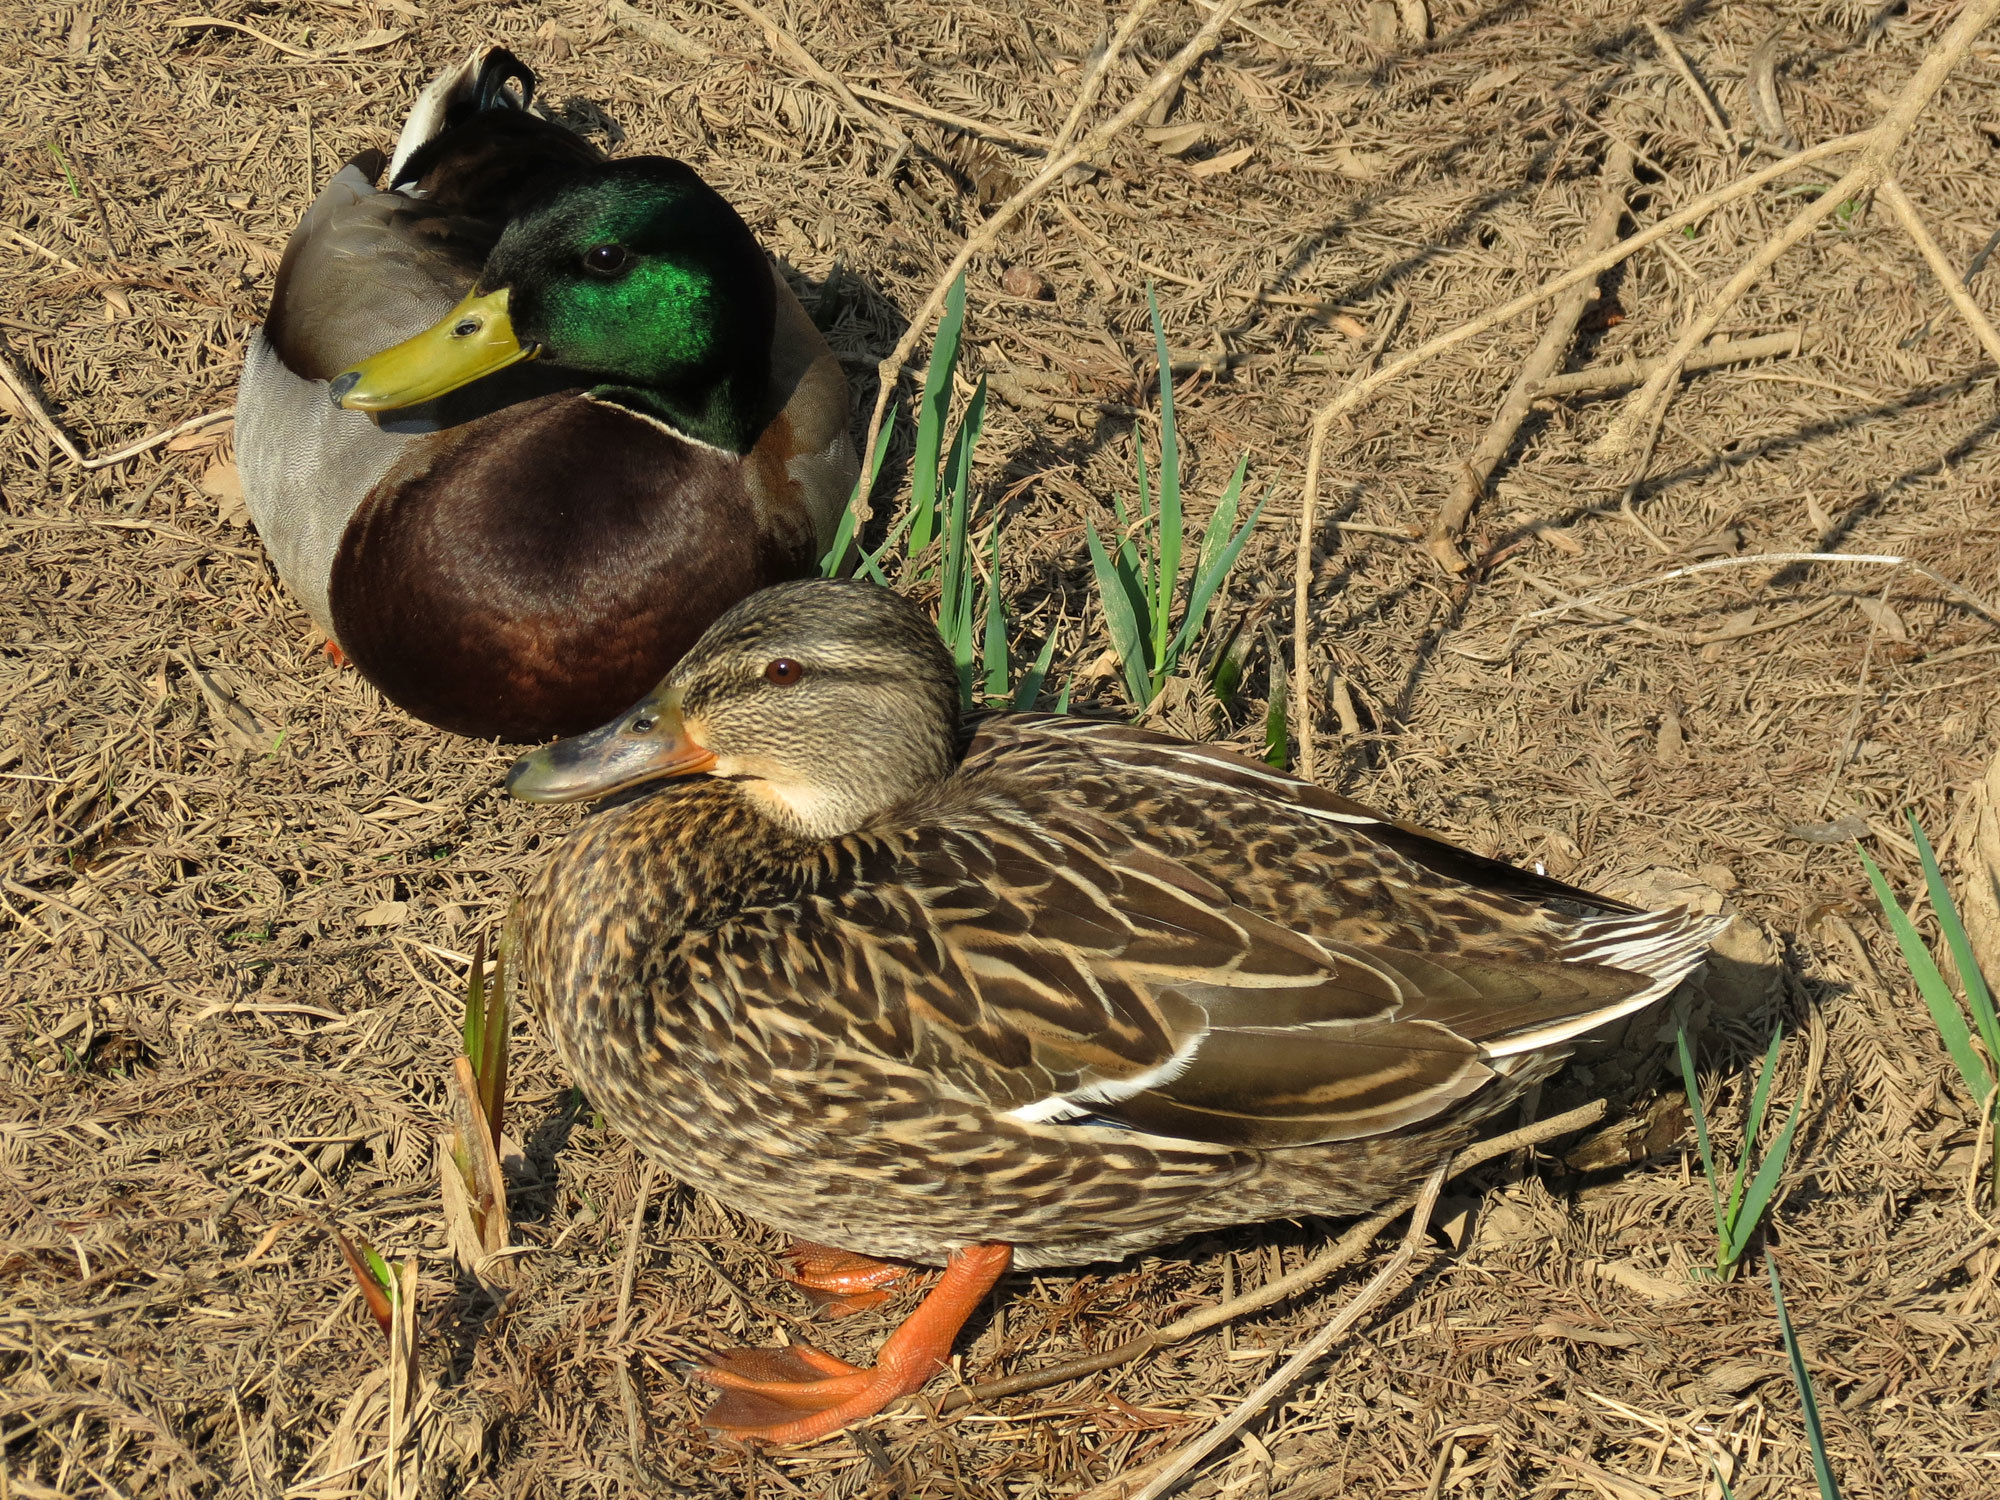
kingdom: Animalia
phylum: Chordata
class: Aves
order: Anseriformes
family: Anatidae
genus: Anas
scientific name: Anas platyrhynchos
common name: Mallard
